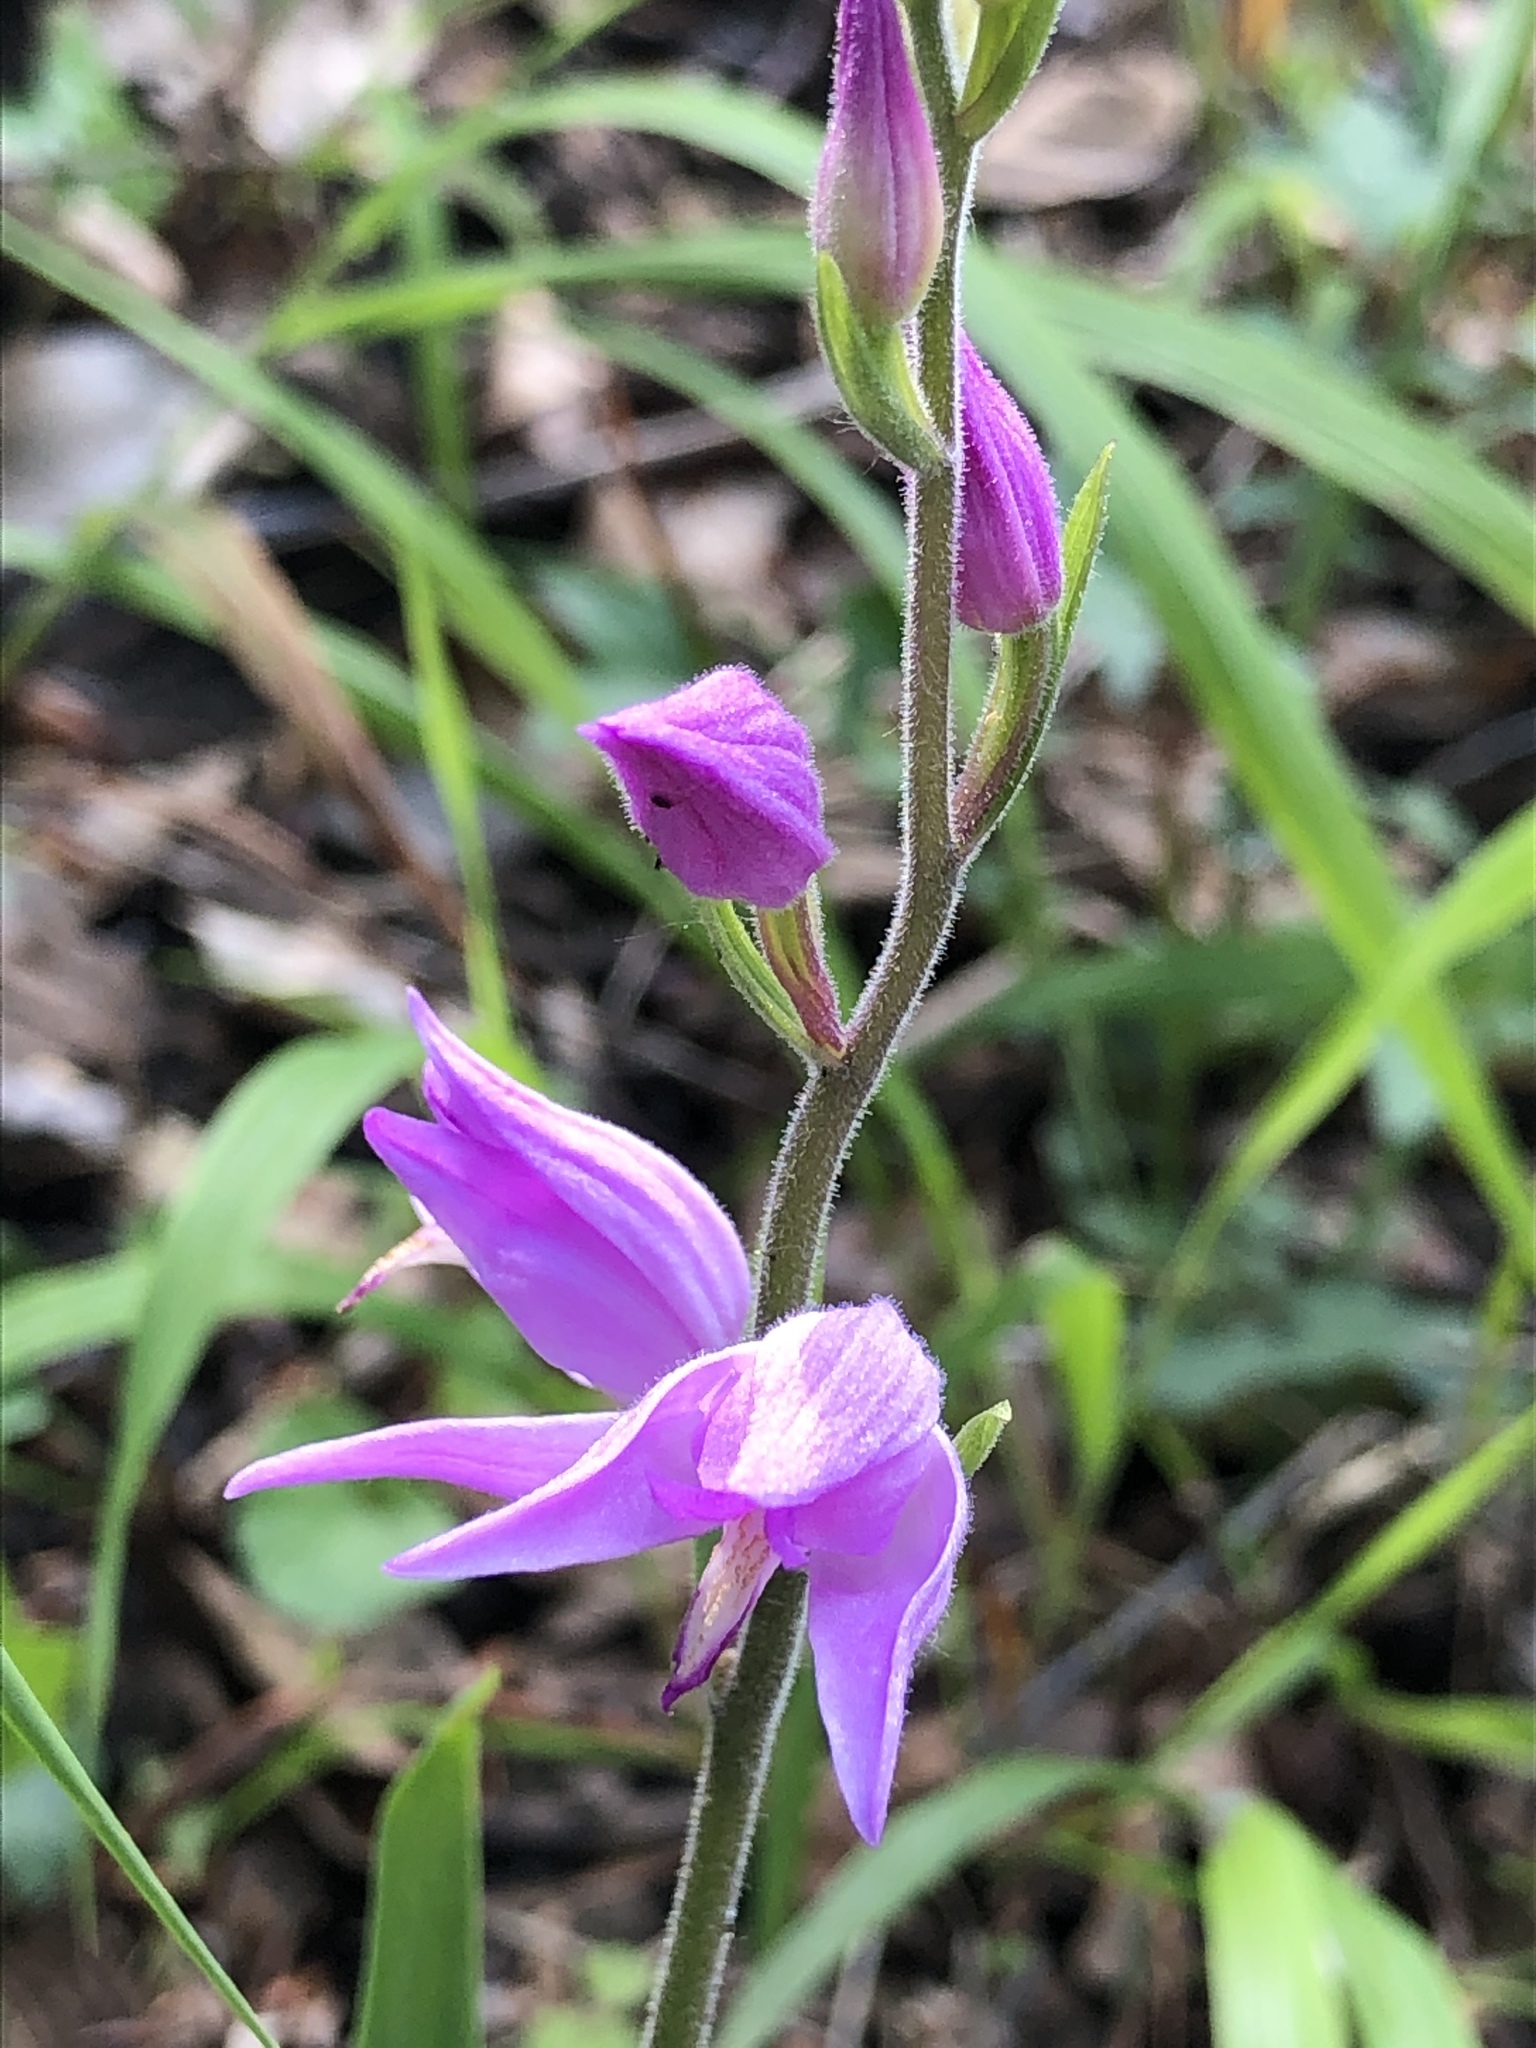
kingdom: Plantae
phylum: Tracheophyta
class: Liliopsida
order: Asparagales
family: Orchidaceae
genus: Cephalanthera
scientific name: Cephalanthera rubra
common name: Red helleborine
